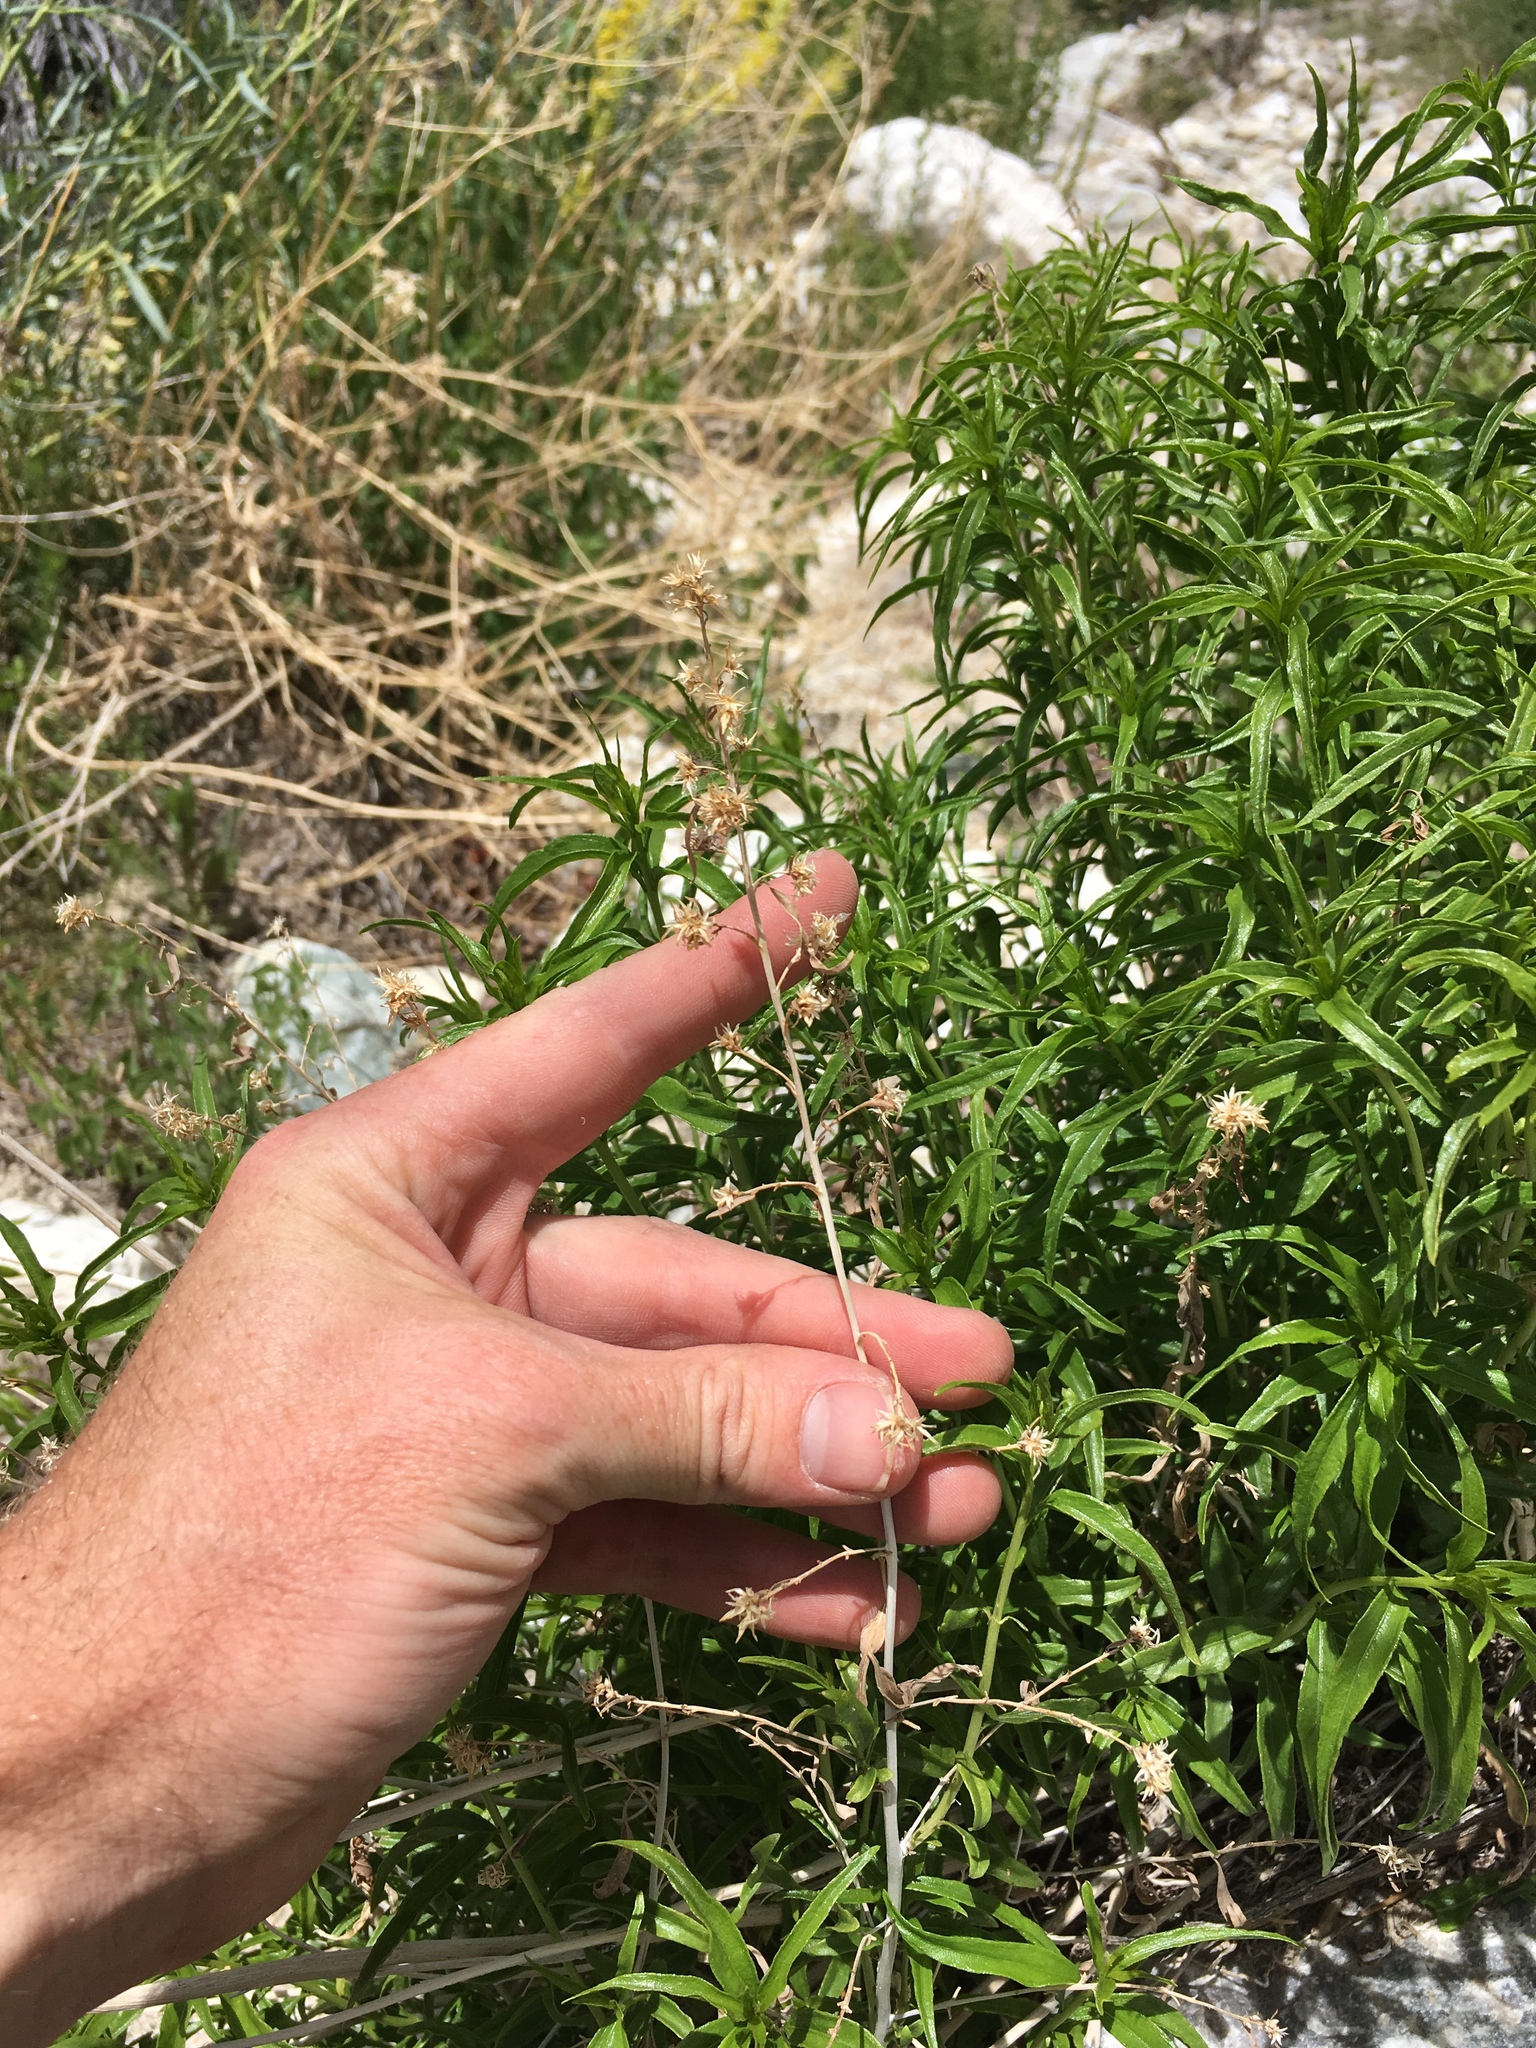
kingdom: Plantae
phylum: Tracheophyta
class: Magnoliopsida
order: Asterales
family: Asteraceae
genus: Brickellia
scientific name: Brickellia longifolia
